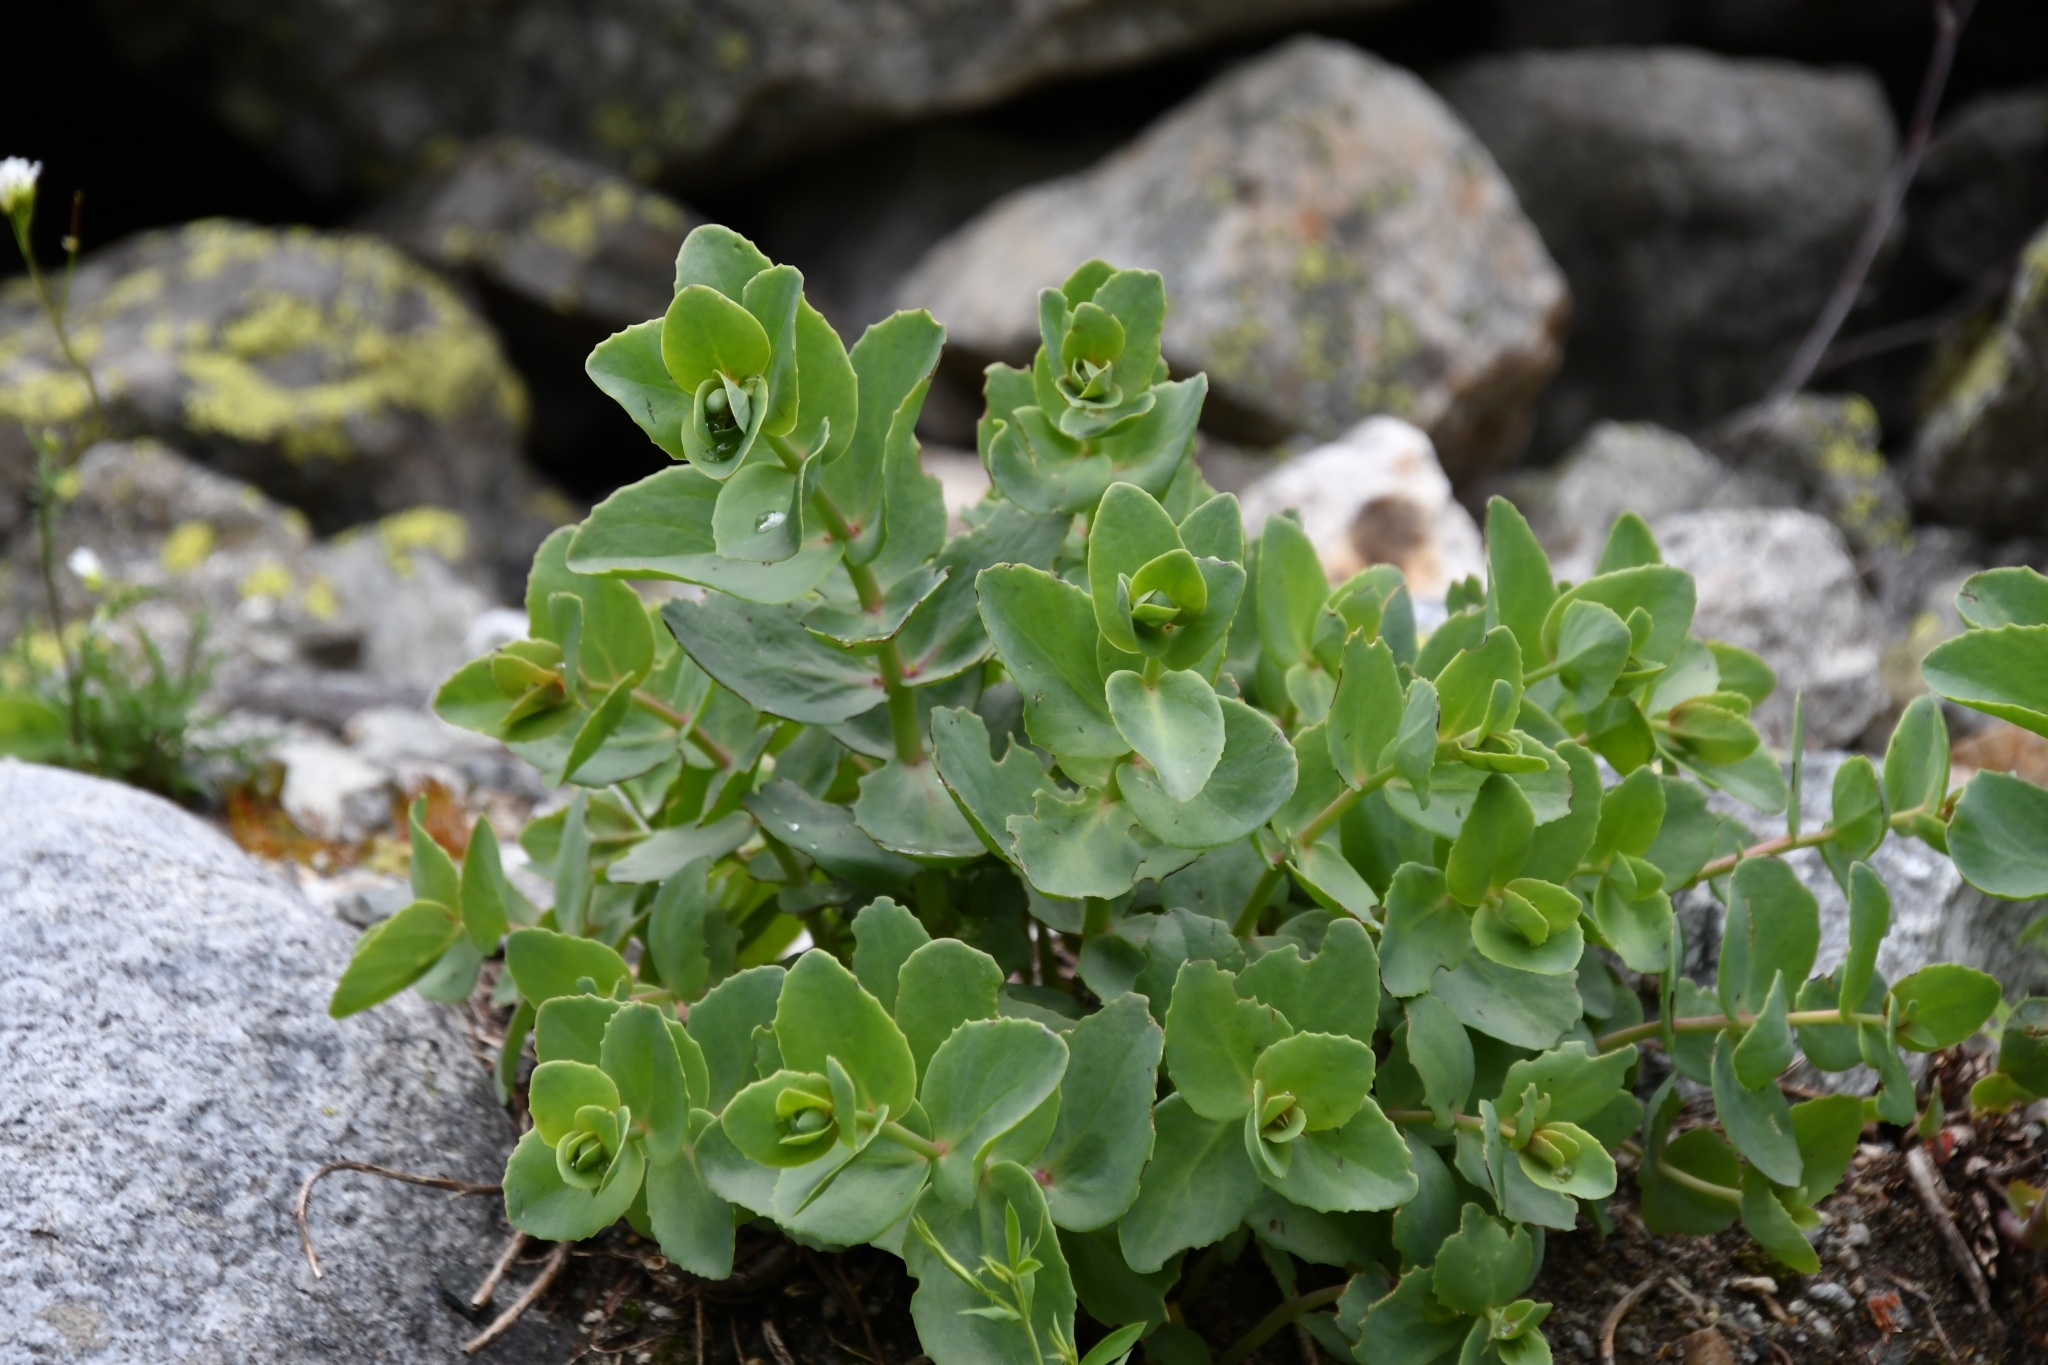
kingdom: Plantae
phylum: Tracheophyta
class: Magnoliopsida
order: Saxifragales
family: Crassulaceae
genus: Hylotelephium
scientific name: Hylotelephium maximum
